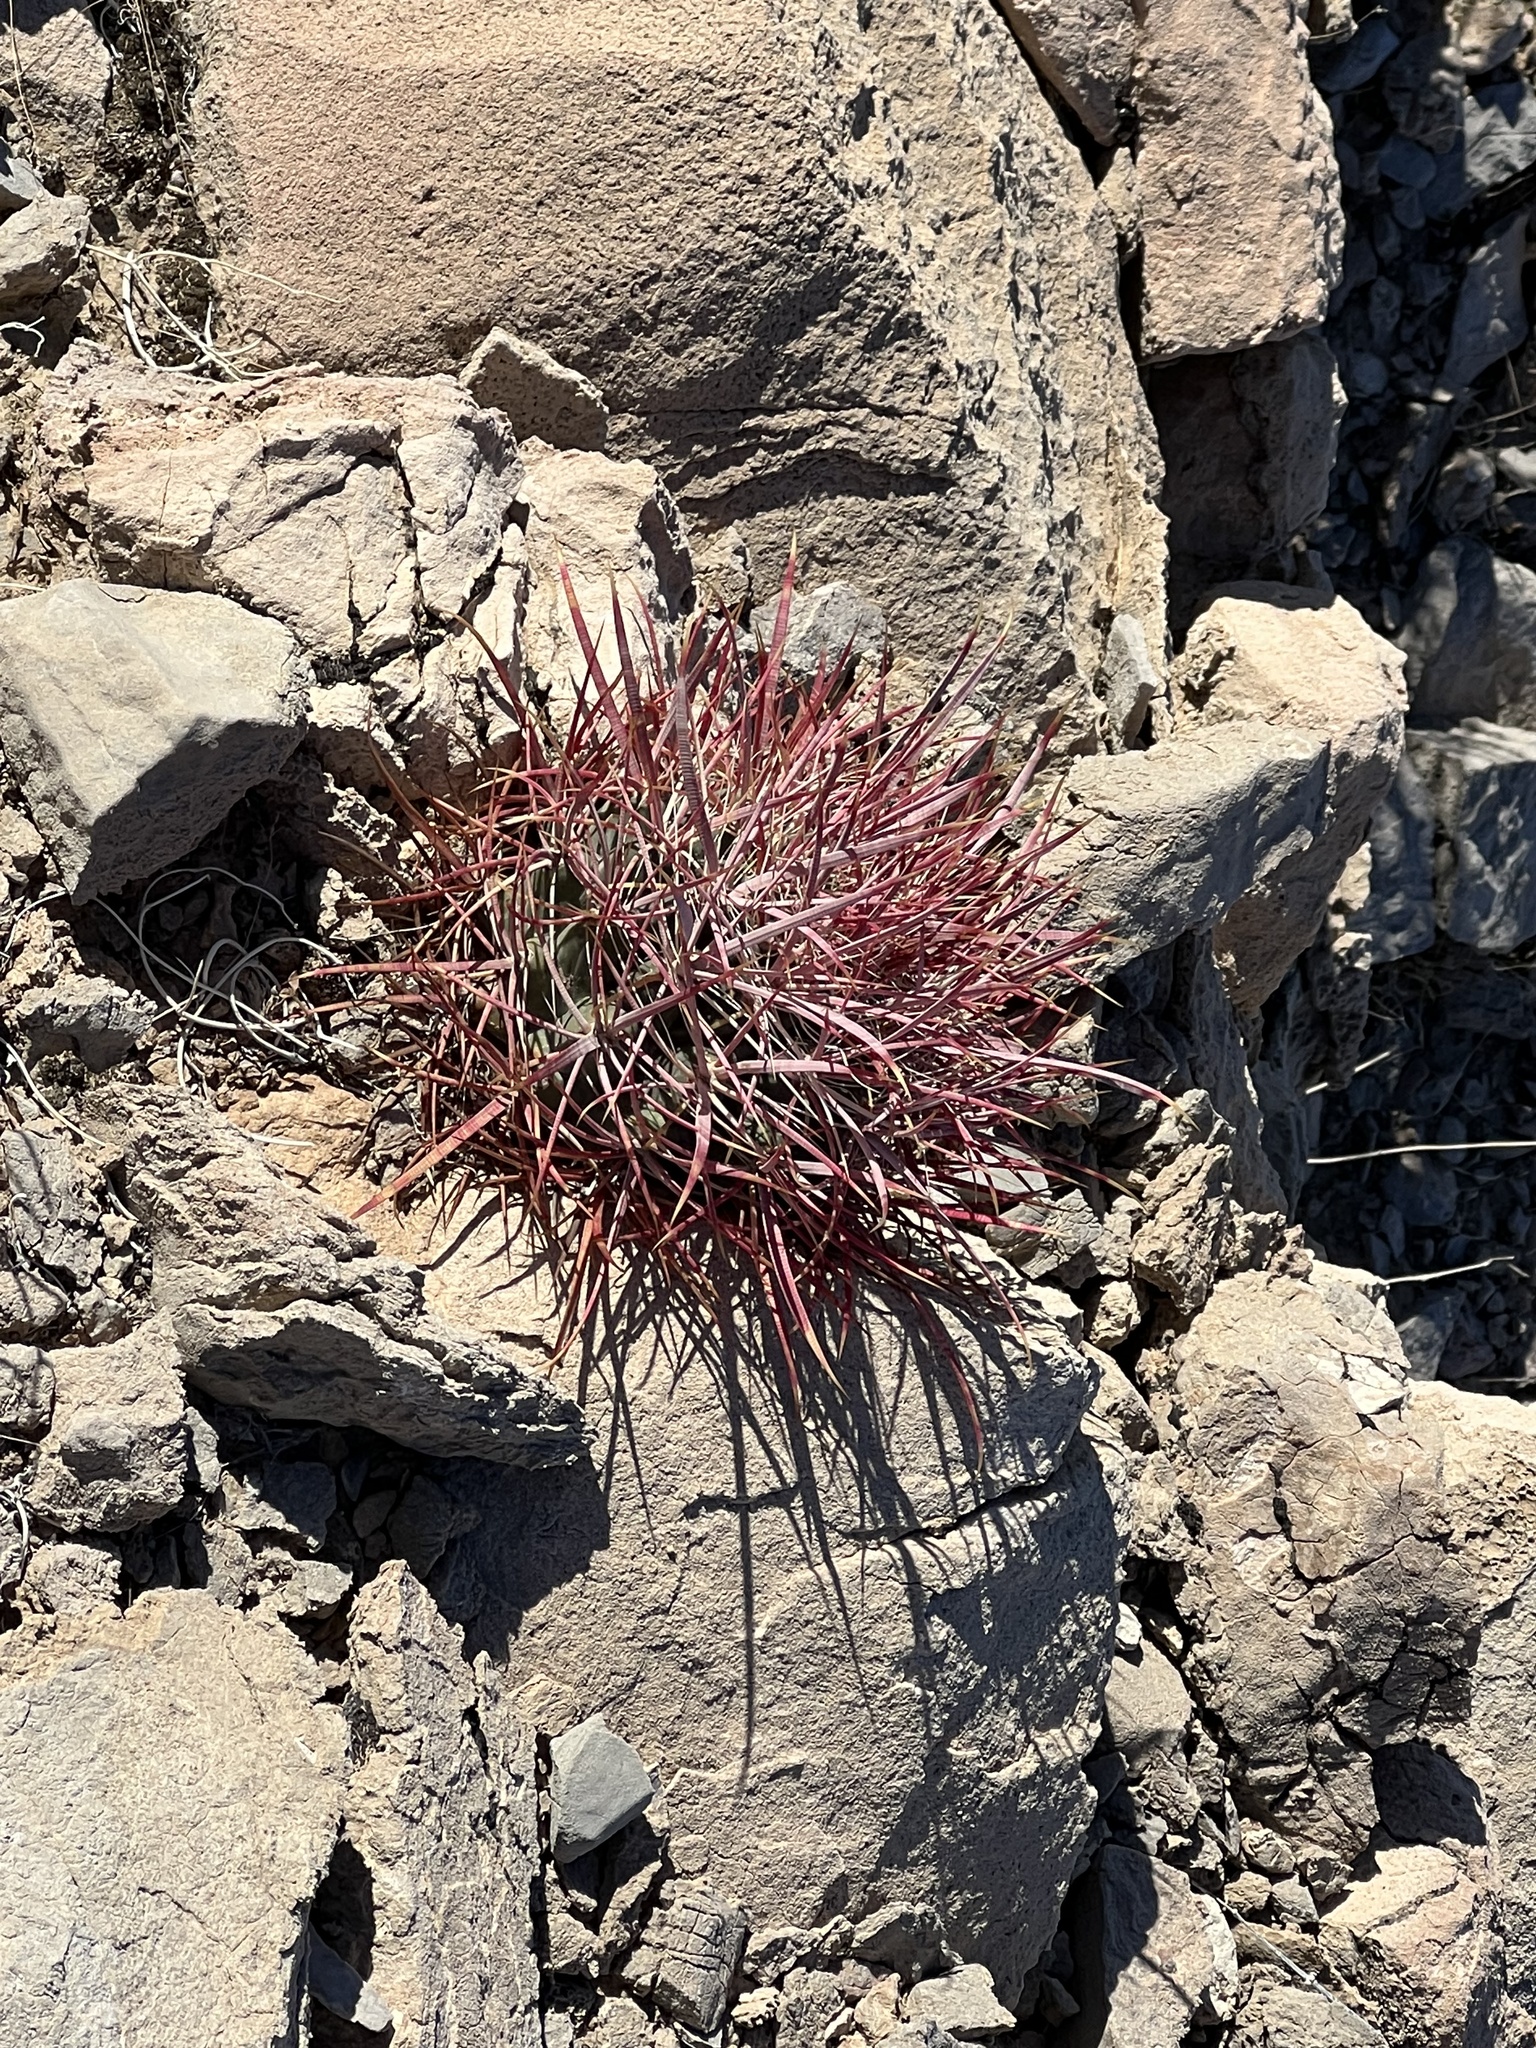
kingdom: Plantae
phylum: Tracheophyta
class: Magnoliopsida
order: Caryophyllales
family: Cactaceae
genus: Ferocactus
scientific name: Ferocactus cylindraceus
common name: California barrel cactus
